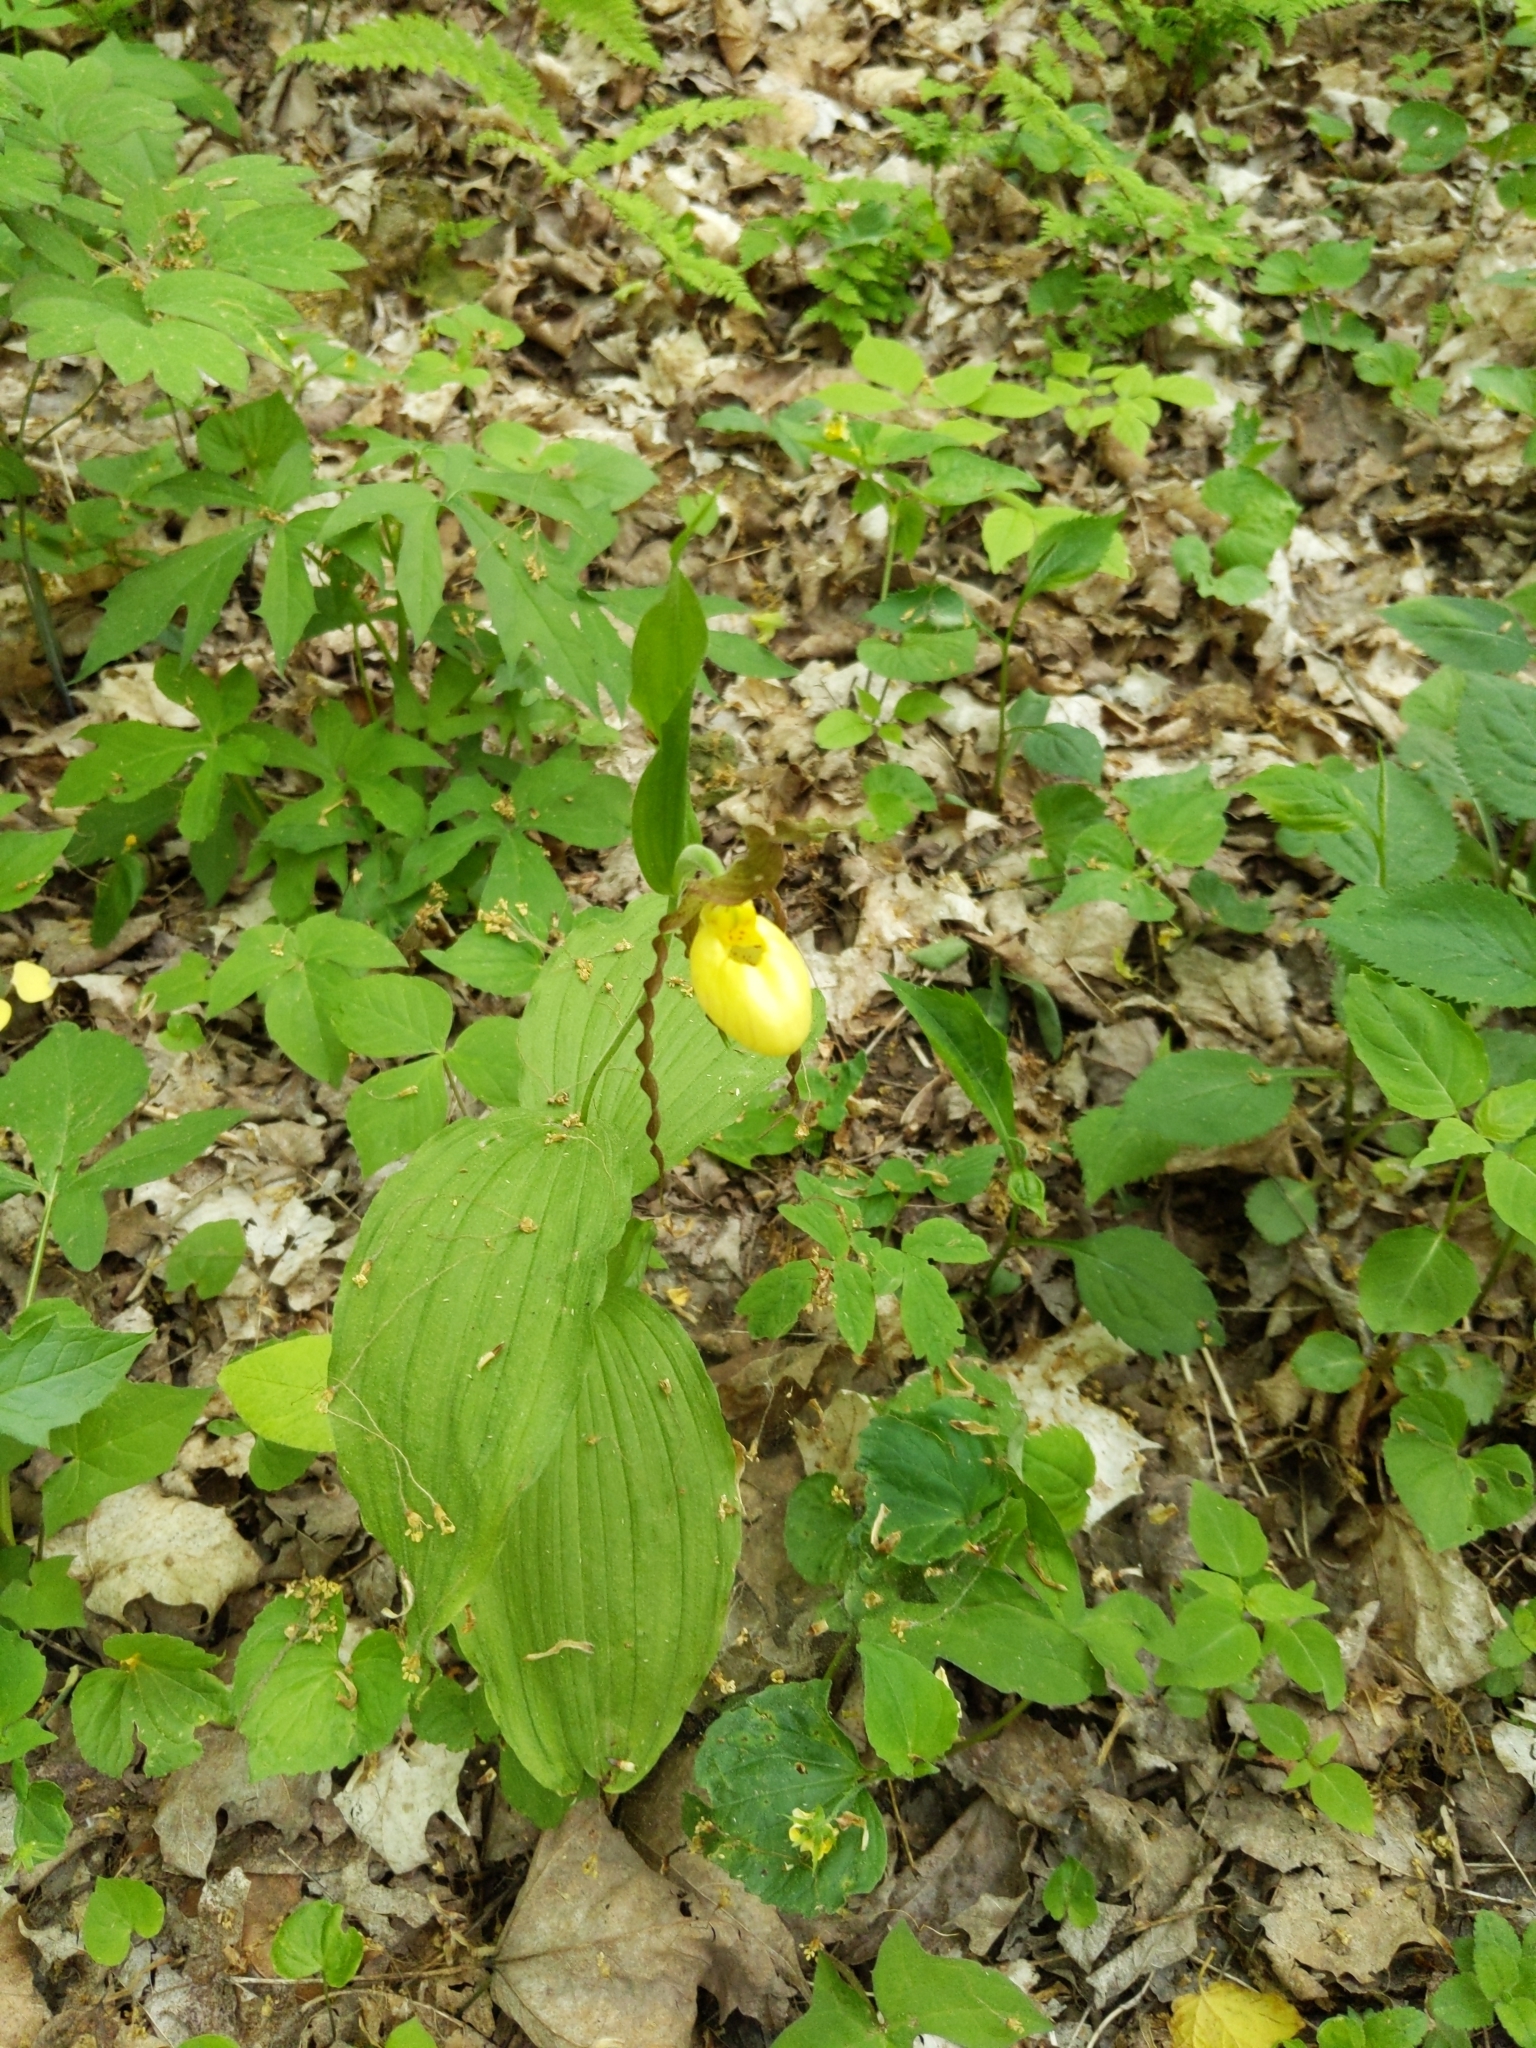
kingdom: Plantae
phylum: Tracheophyta
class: Liliopsida
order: Asparagales
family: Orchidaceae
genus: Cypripedium
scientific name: Cypripedium parviflorum
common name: American yellow lady's-slipper
